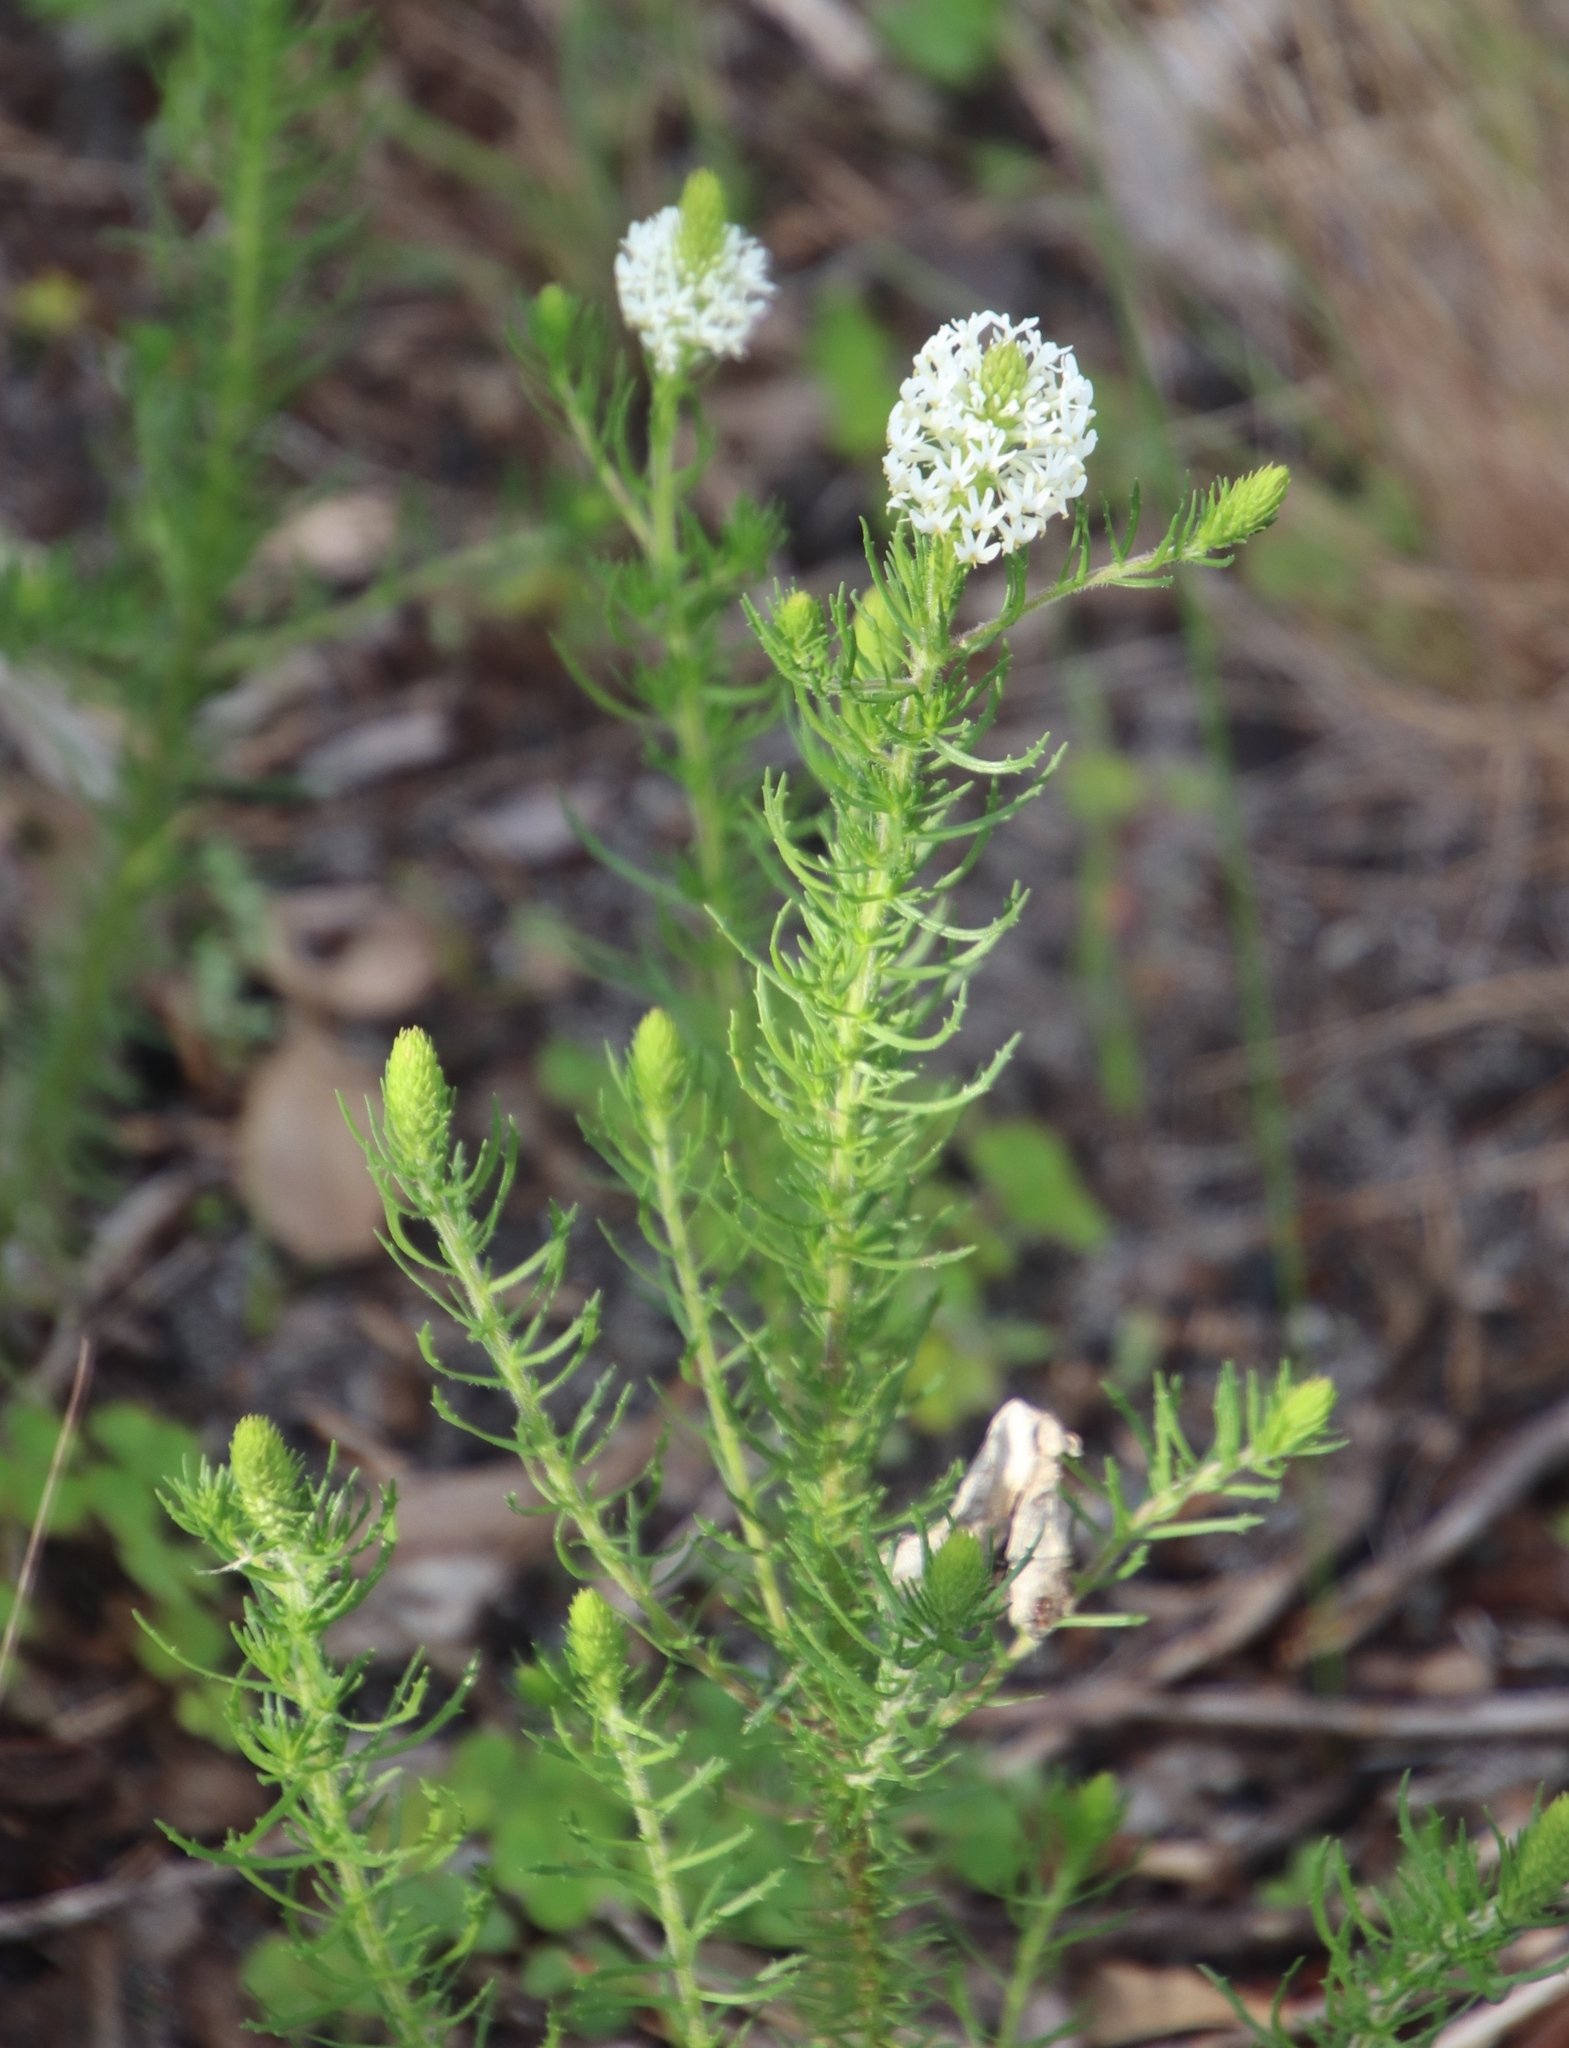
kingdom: Plantae
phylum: Tracheophyta
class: Magnoliopsida
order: Lamiales
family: Scrophulariaceae
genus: Dischisma
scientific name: Dischisma ciliatum
